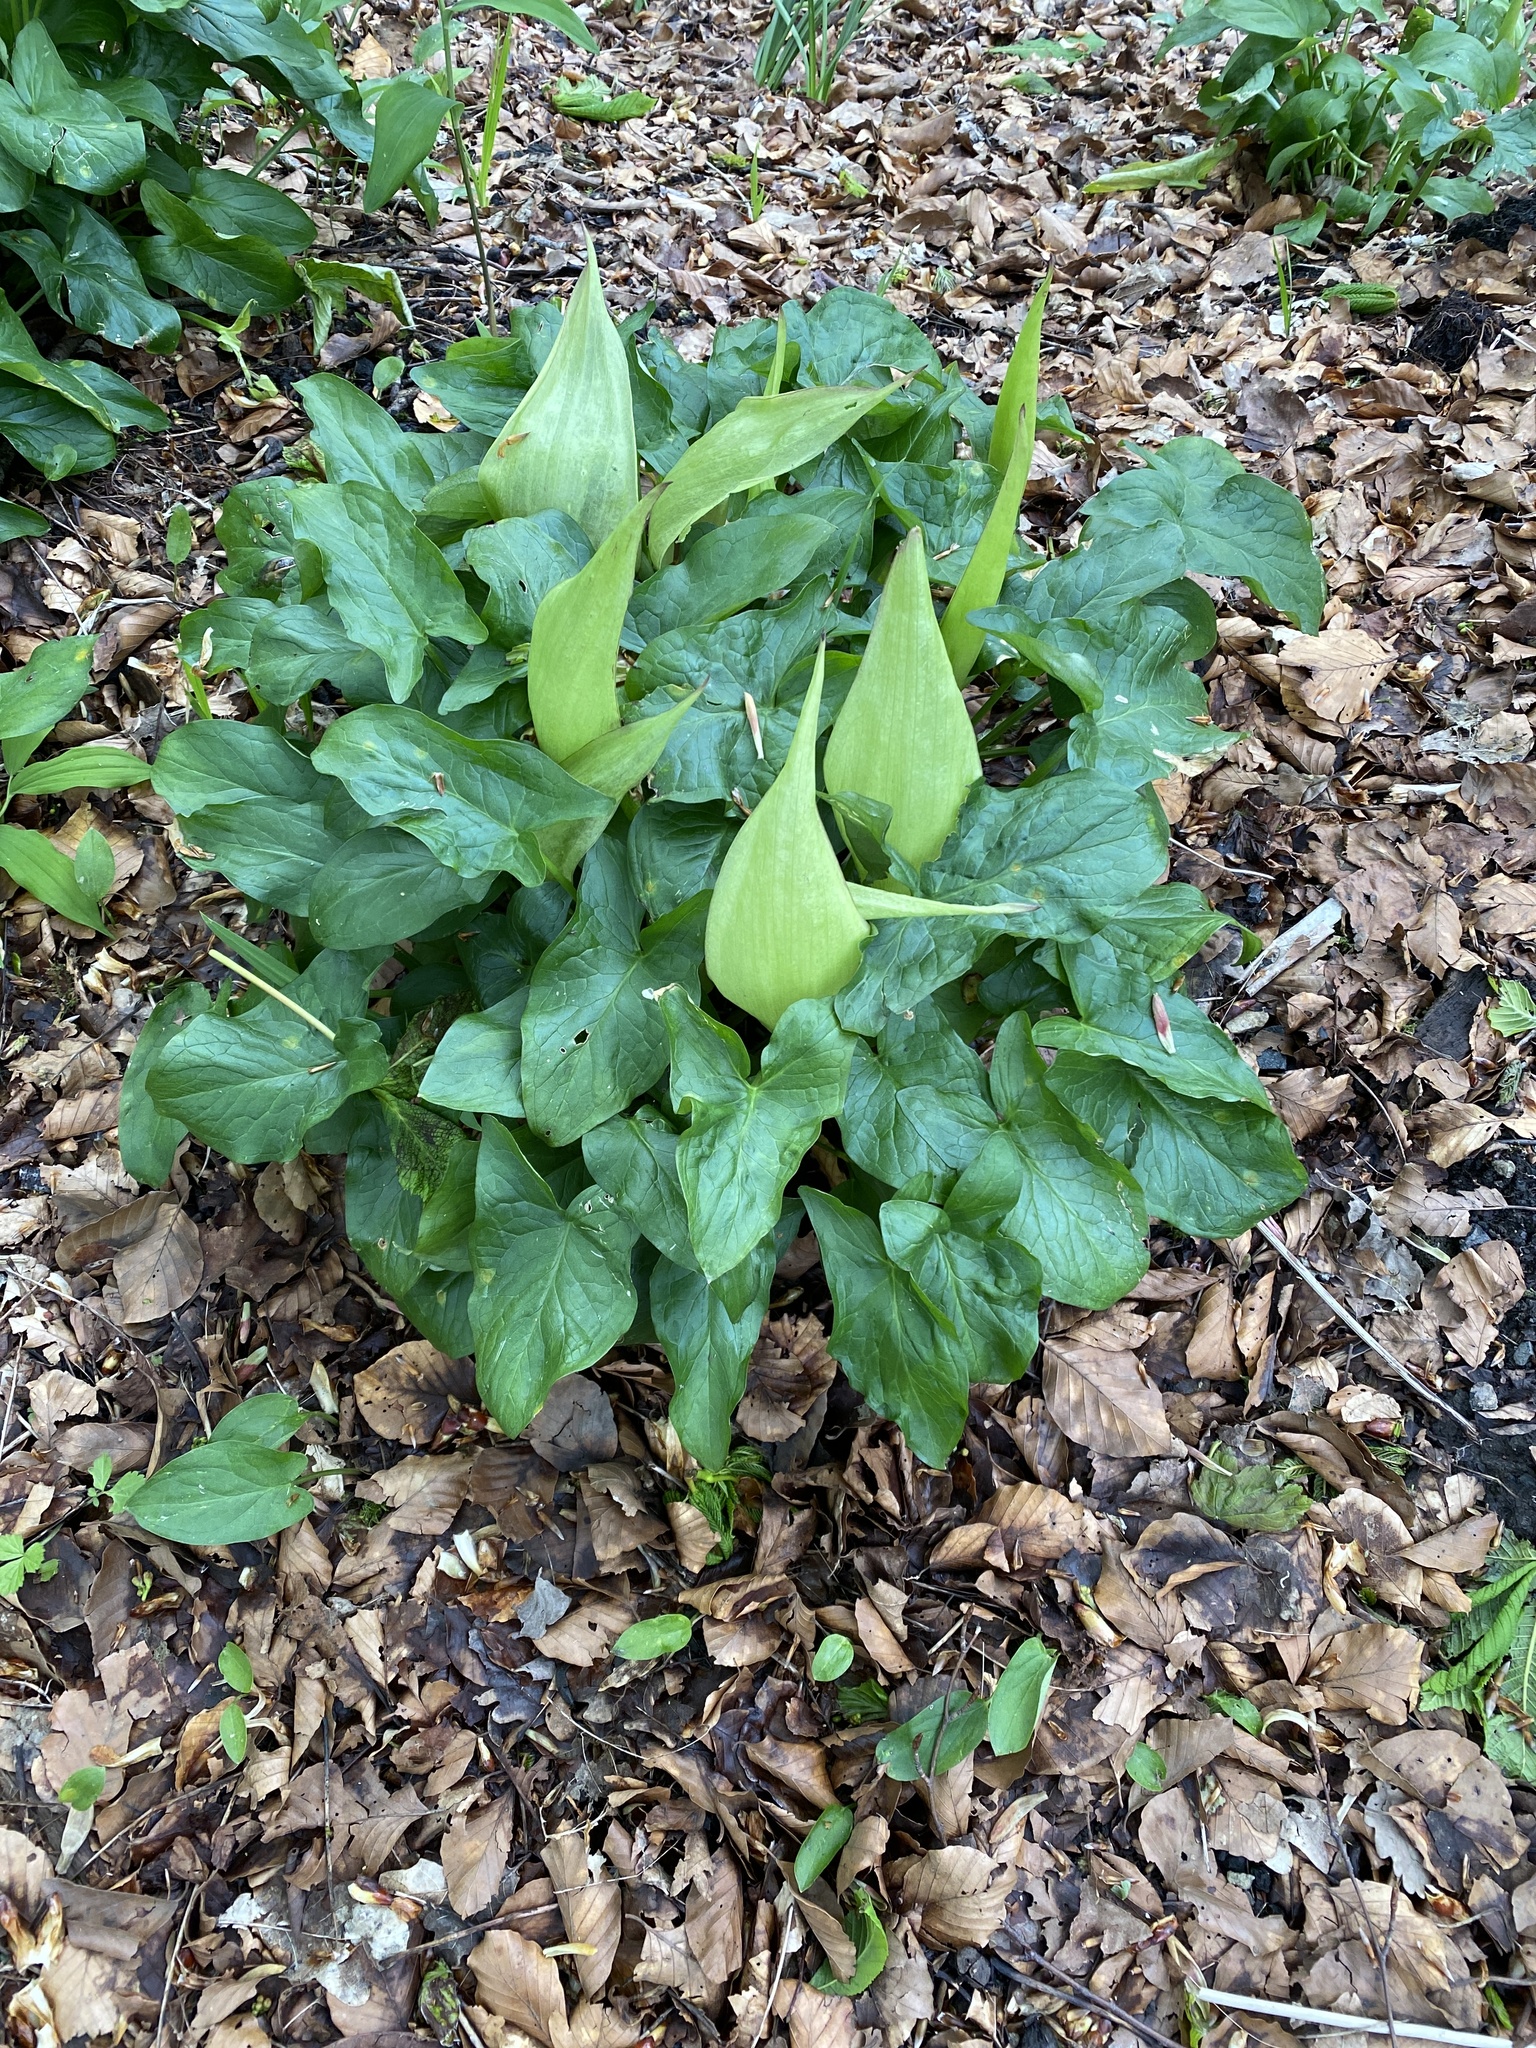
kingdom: Plantae
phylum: Tracheophyta
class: Liliopsida
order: Alismatales
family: Araceae
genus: Arum
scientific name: Arum maculatum
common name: Lords-and-ladies
